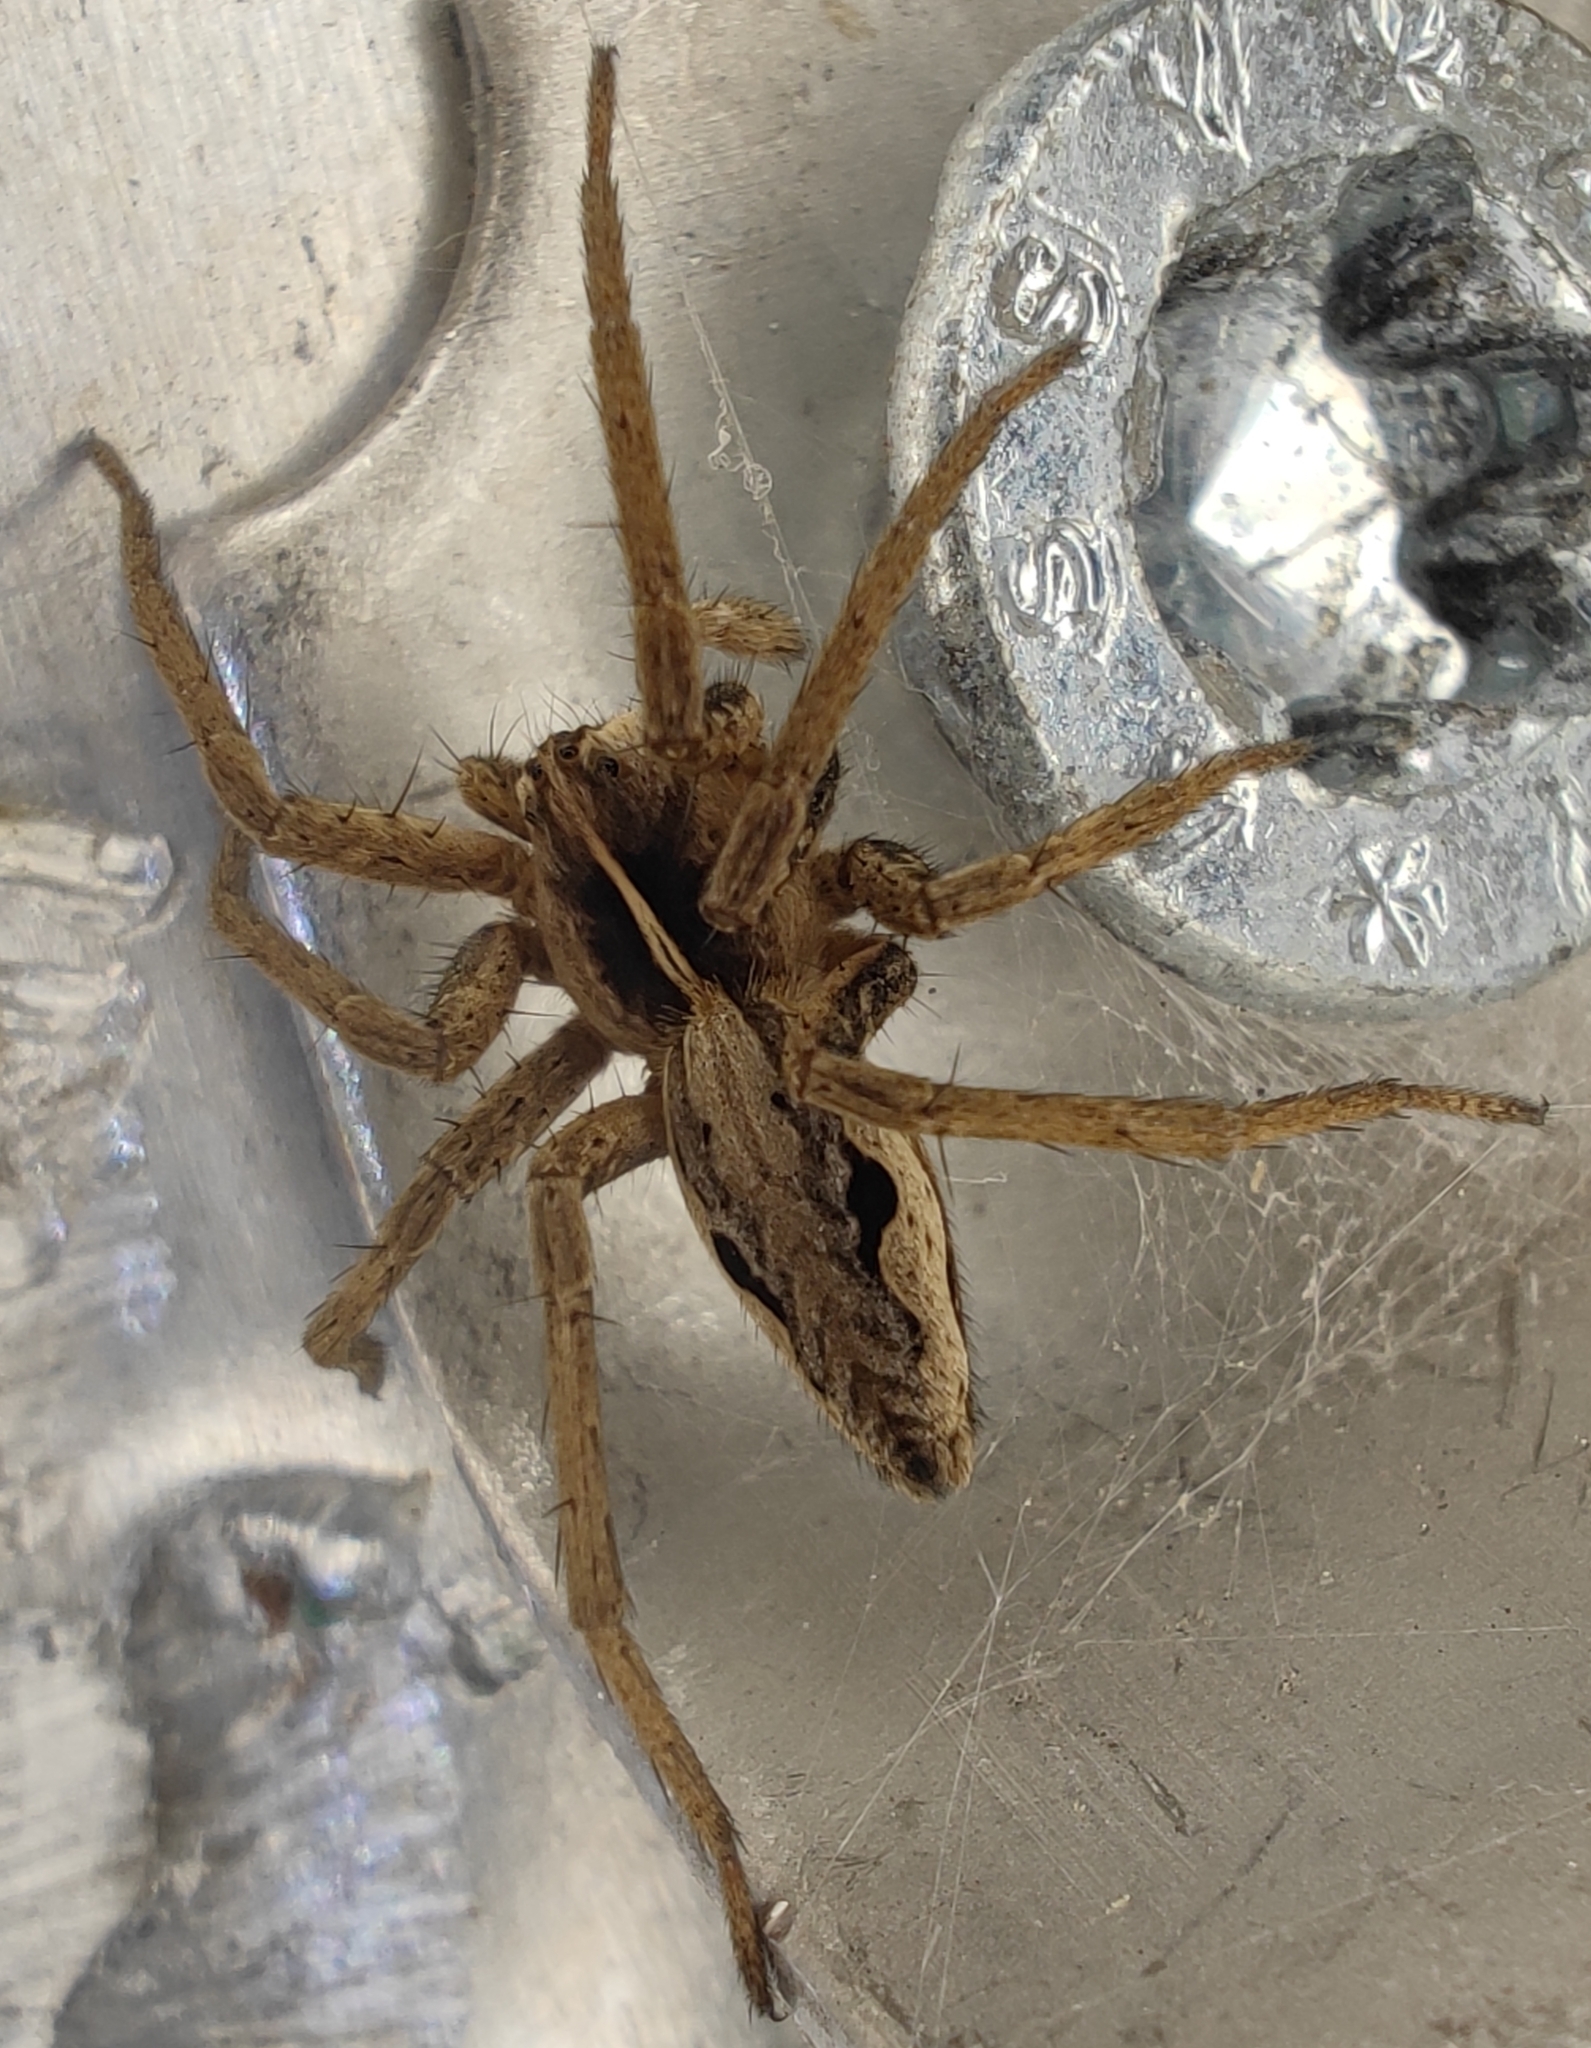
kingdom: Animalia
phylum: Arthropoda
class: Arachnida
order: Araneae
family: Pisauridae
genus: Pisaura
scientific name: Pisaura mirabilis
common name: Tent spider
